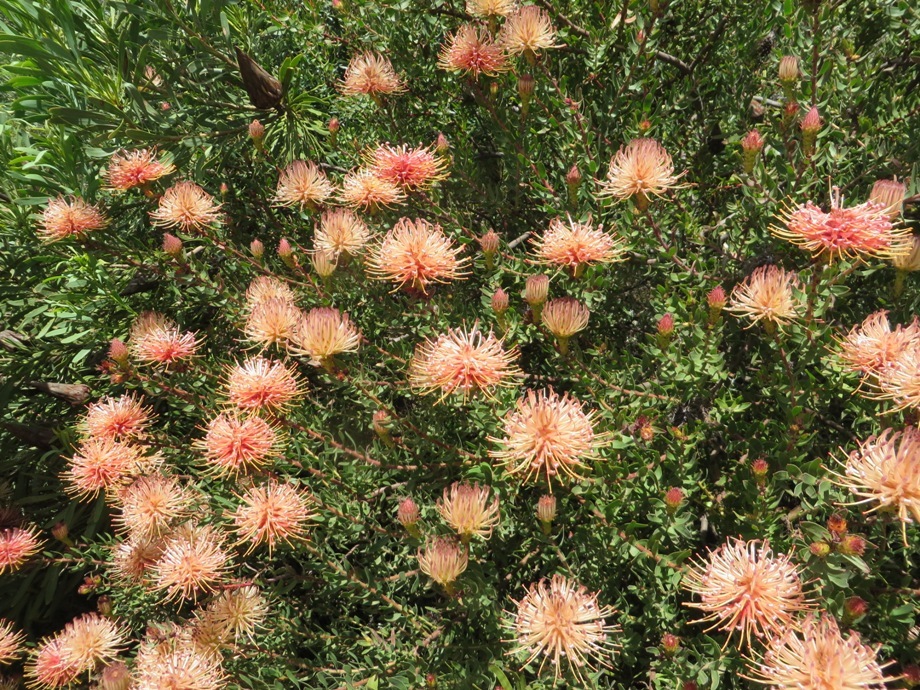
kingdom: Plantae
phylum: Tracheophyta
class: Magnoliopsida
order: Proteales
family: Proteaceae
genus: Leucospermum
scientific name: Leucospermum tottum
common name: Ribbon pincushion
